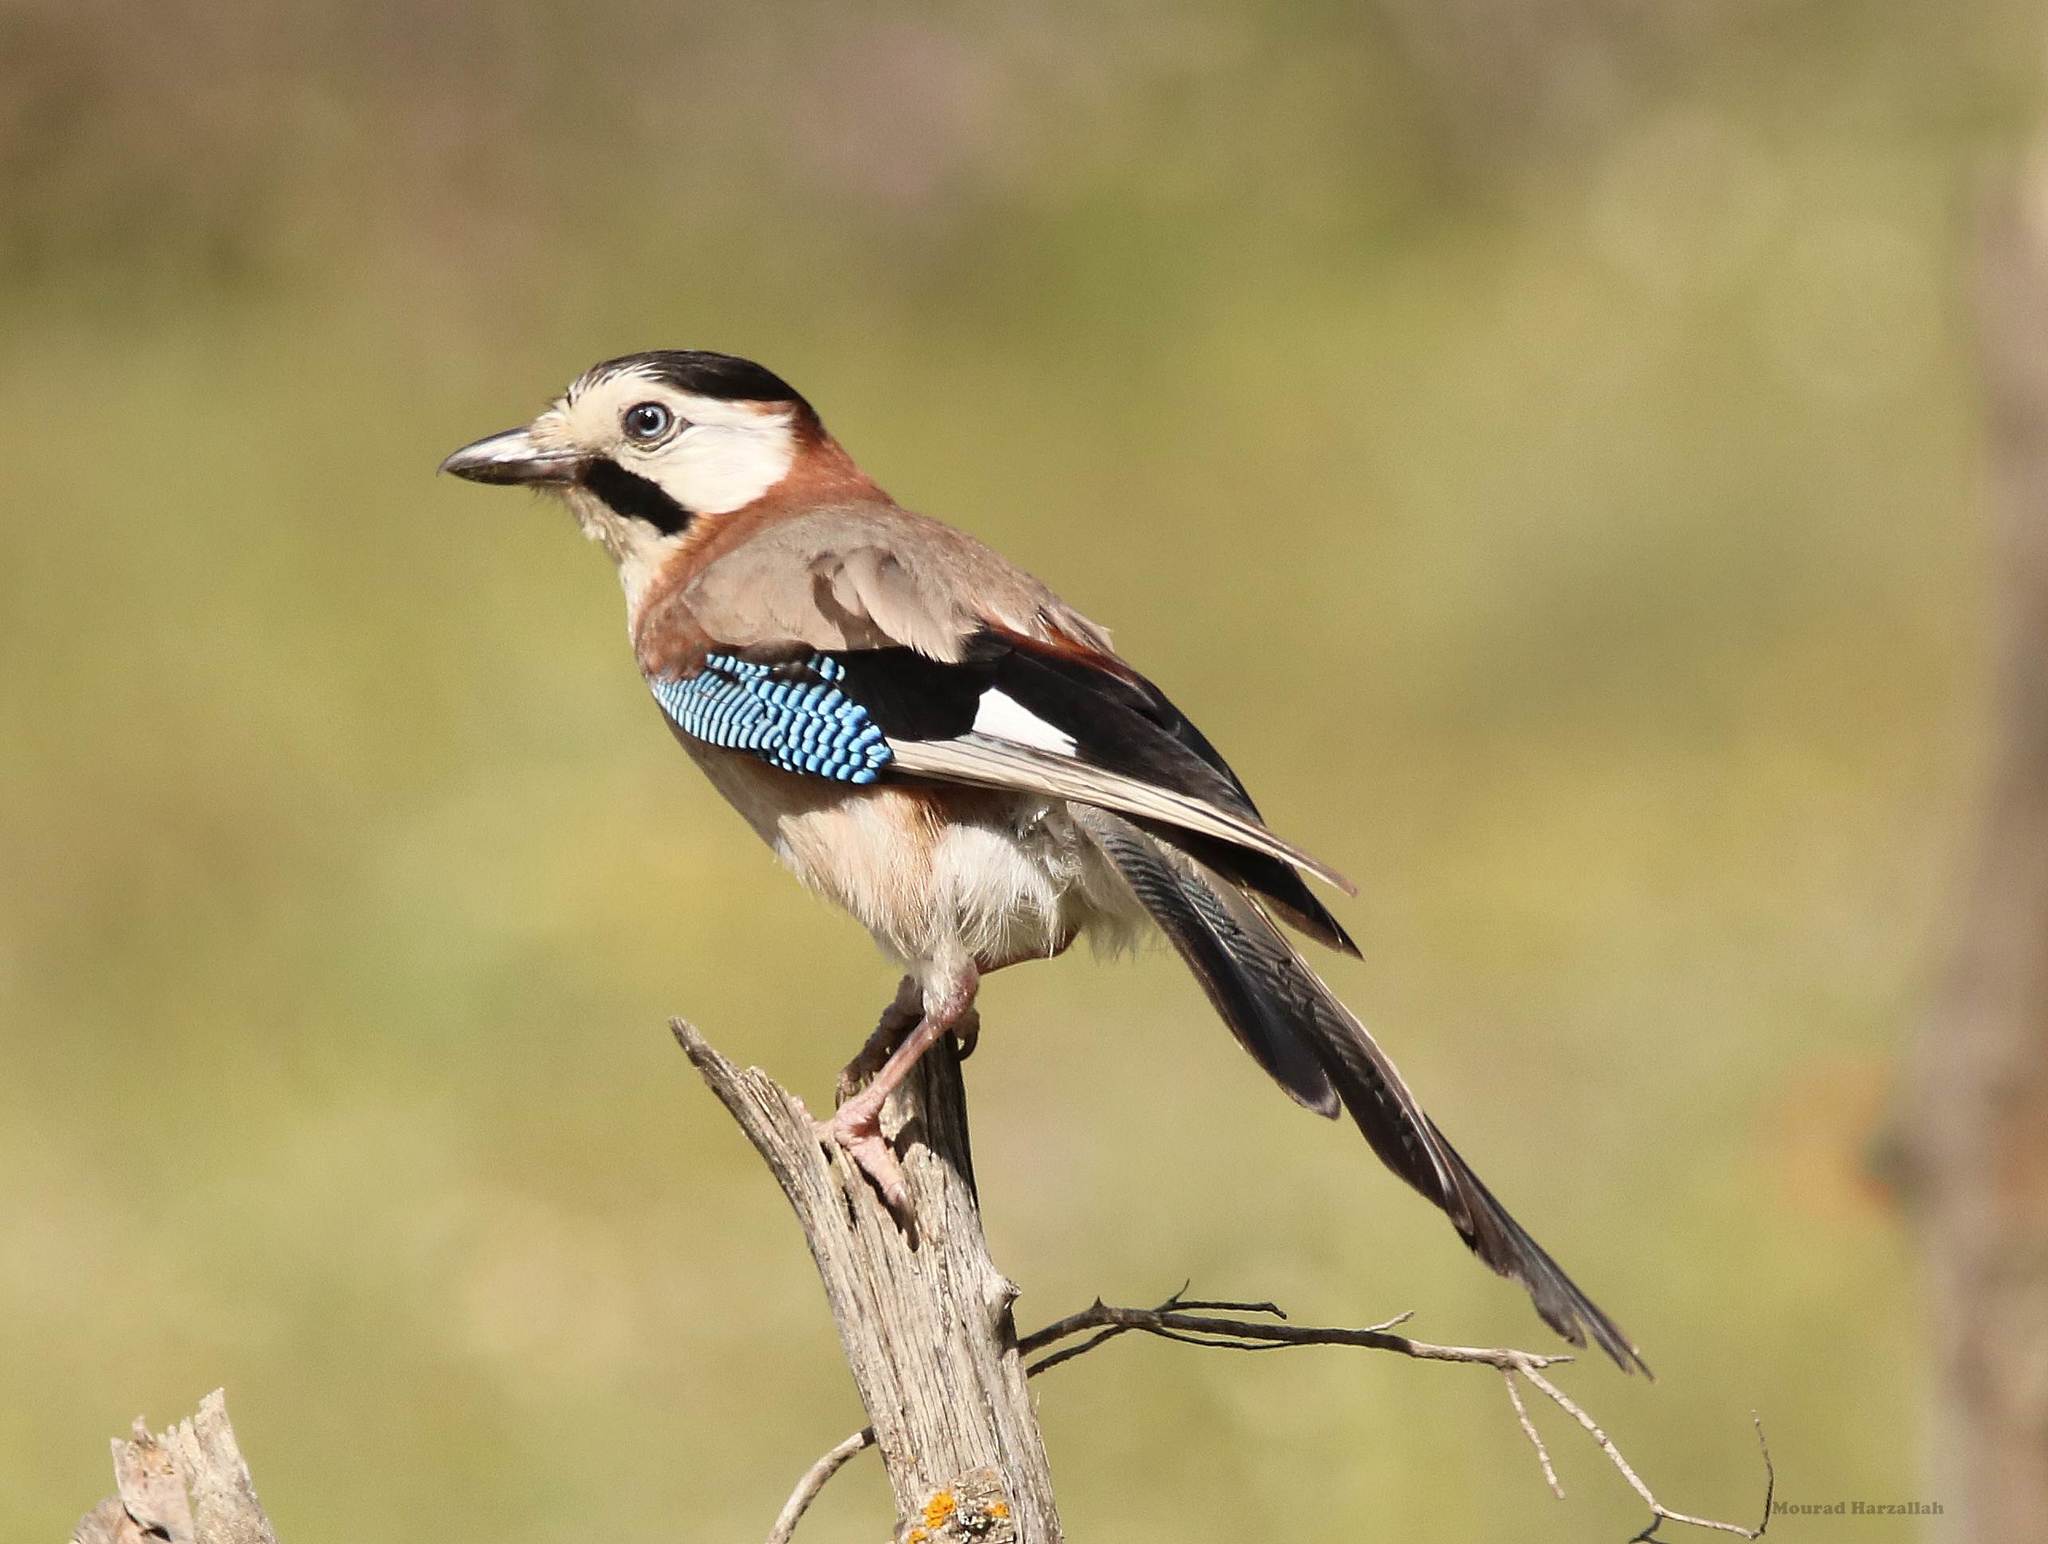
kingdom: Animalia
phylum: Chordata
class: Aves
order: Passeriformes
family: Corvidae
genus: Garrulus
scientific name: Garrulus glandarius
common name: Eurasian jay
